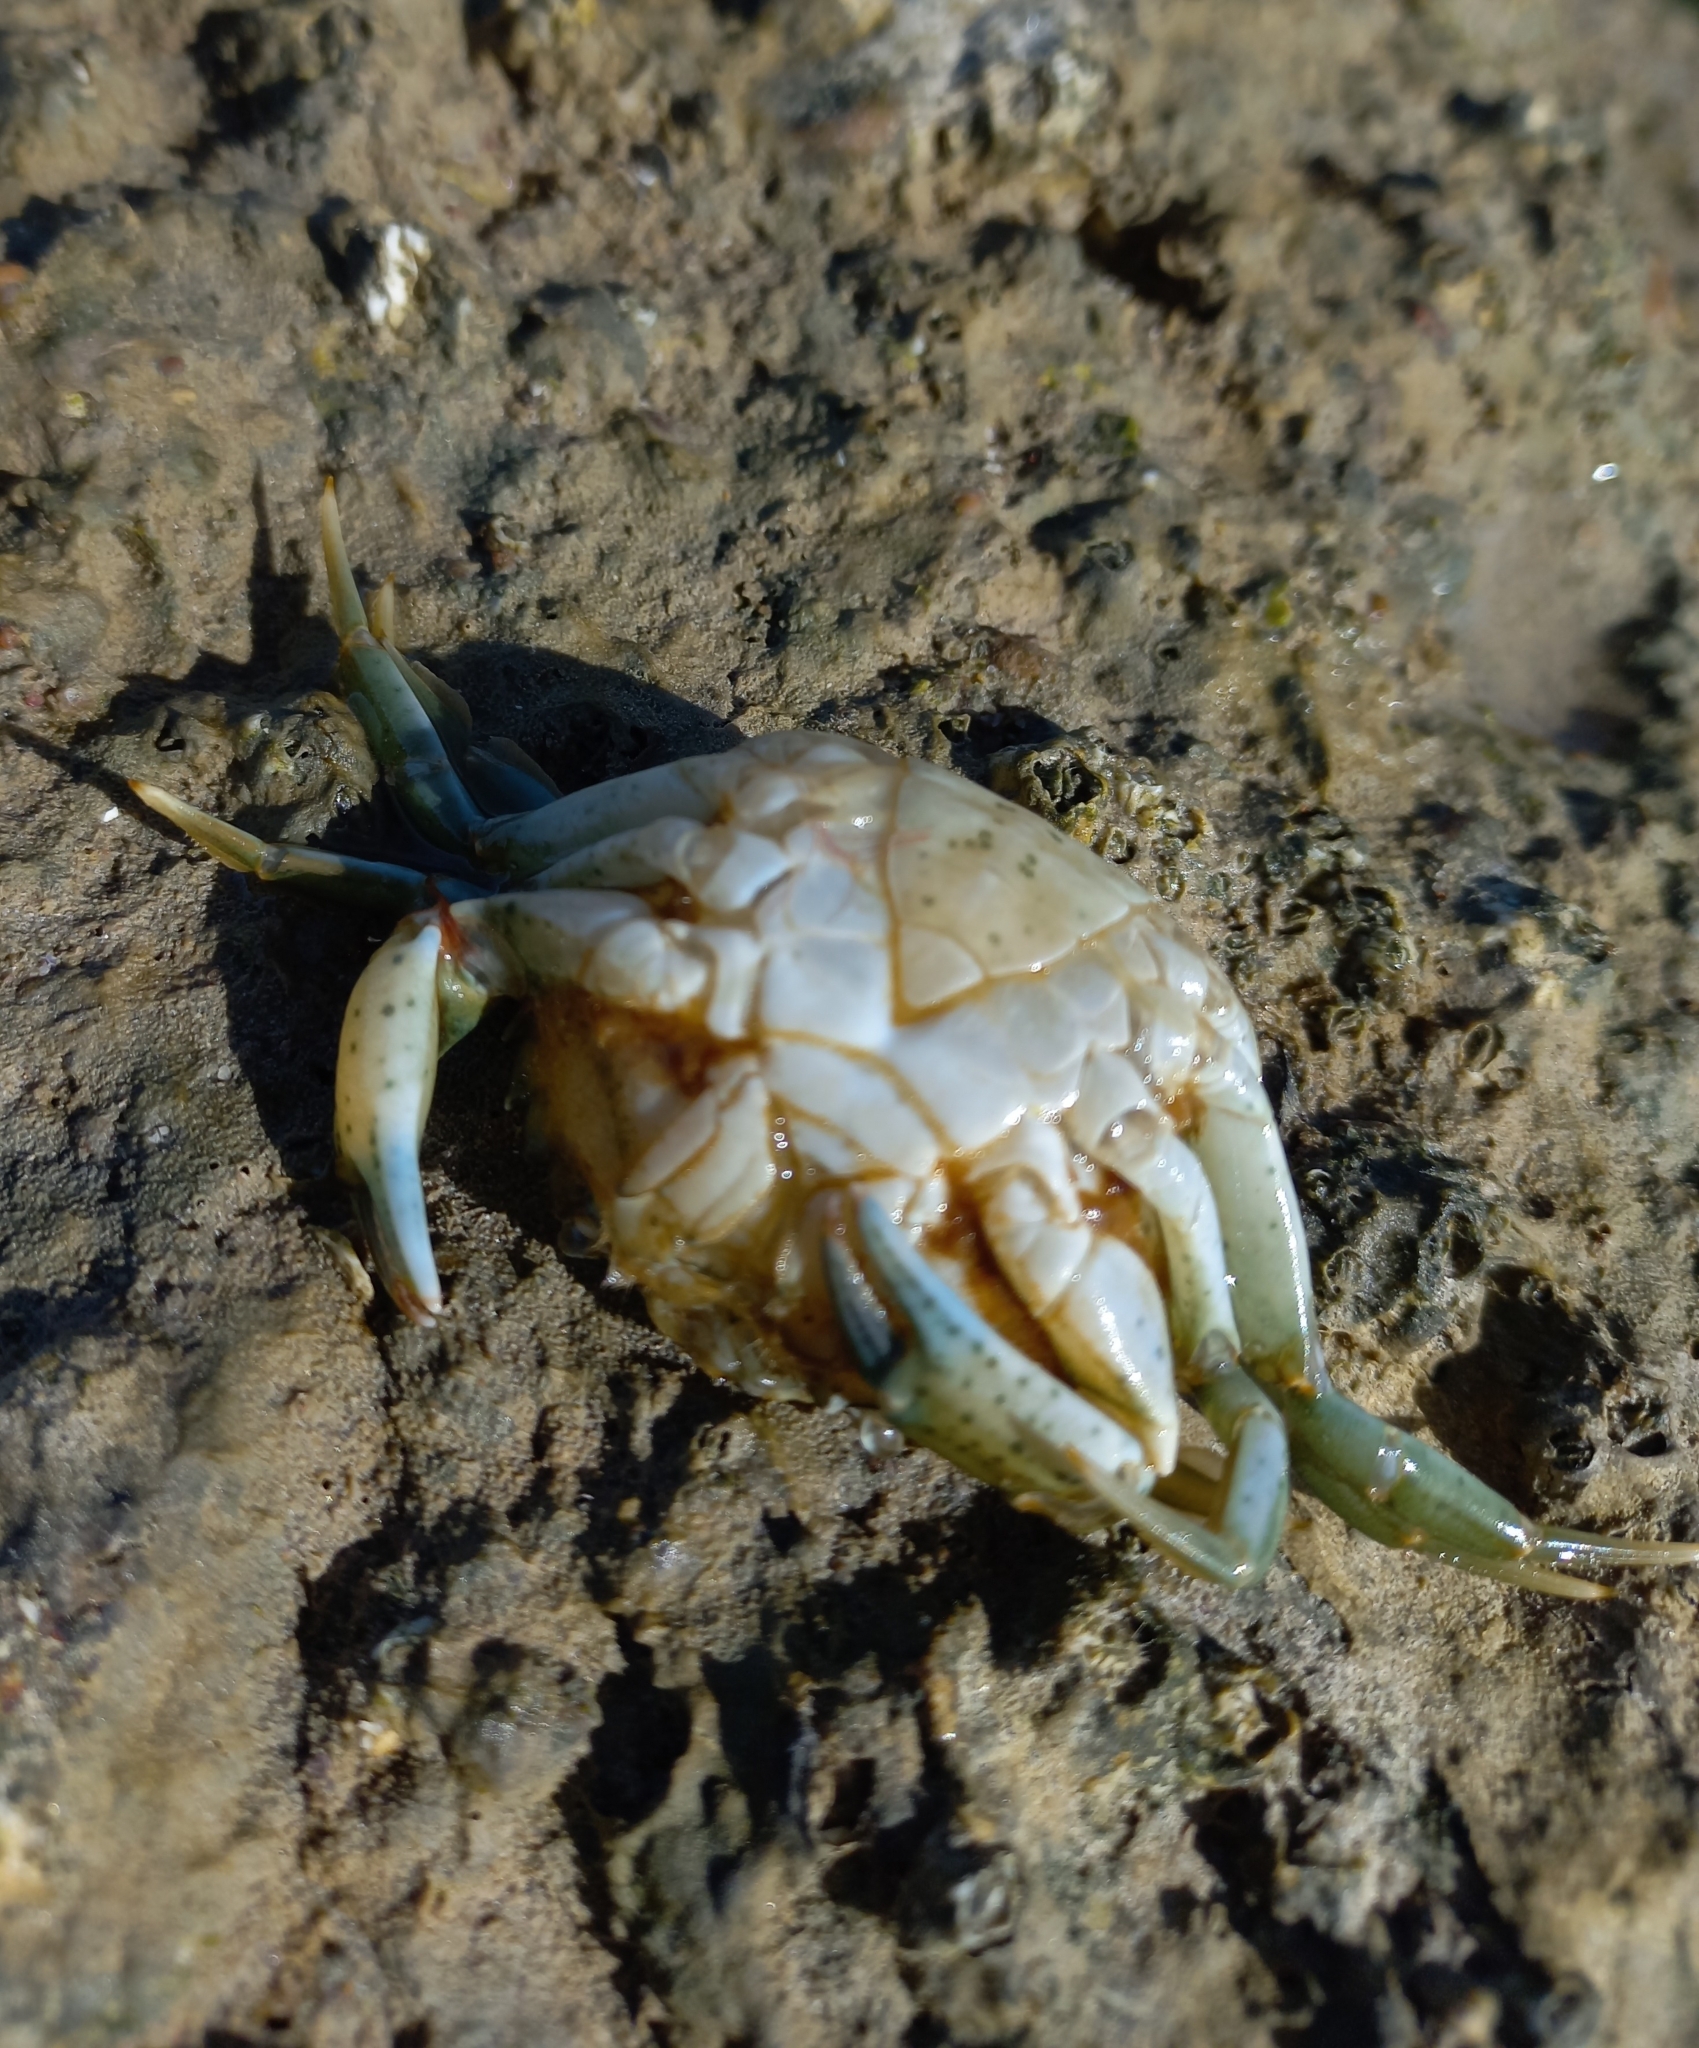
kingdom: Animalia
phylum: Arthropoda
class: Malacostraca
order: Decapoda
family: Carcinidae
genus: Carcinus
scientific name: Carcinus maenas
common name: European green crab
